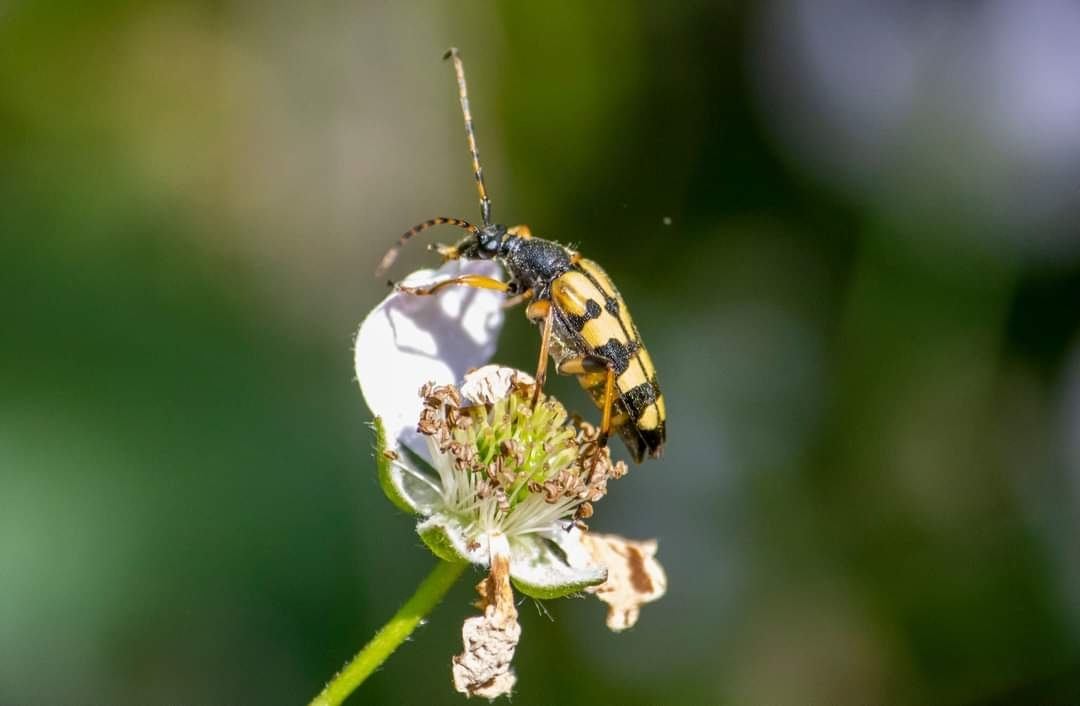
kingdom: Animalia
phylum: Arthropoda
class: Insecta
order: Coleoptera
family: Cerambycidae
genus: Rutpela
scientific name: Rutpela maculata
